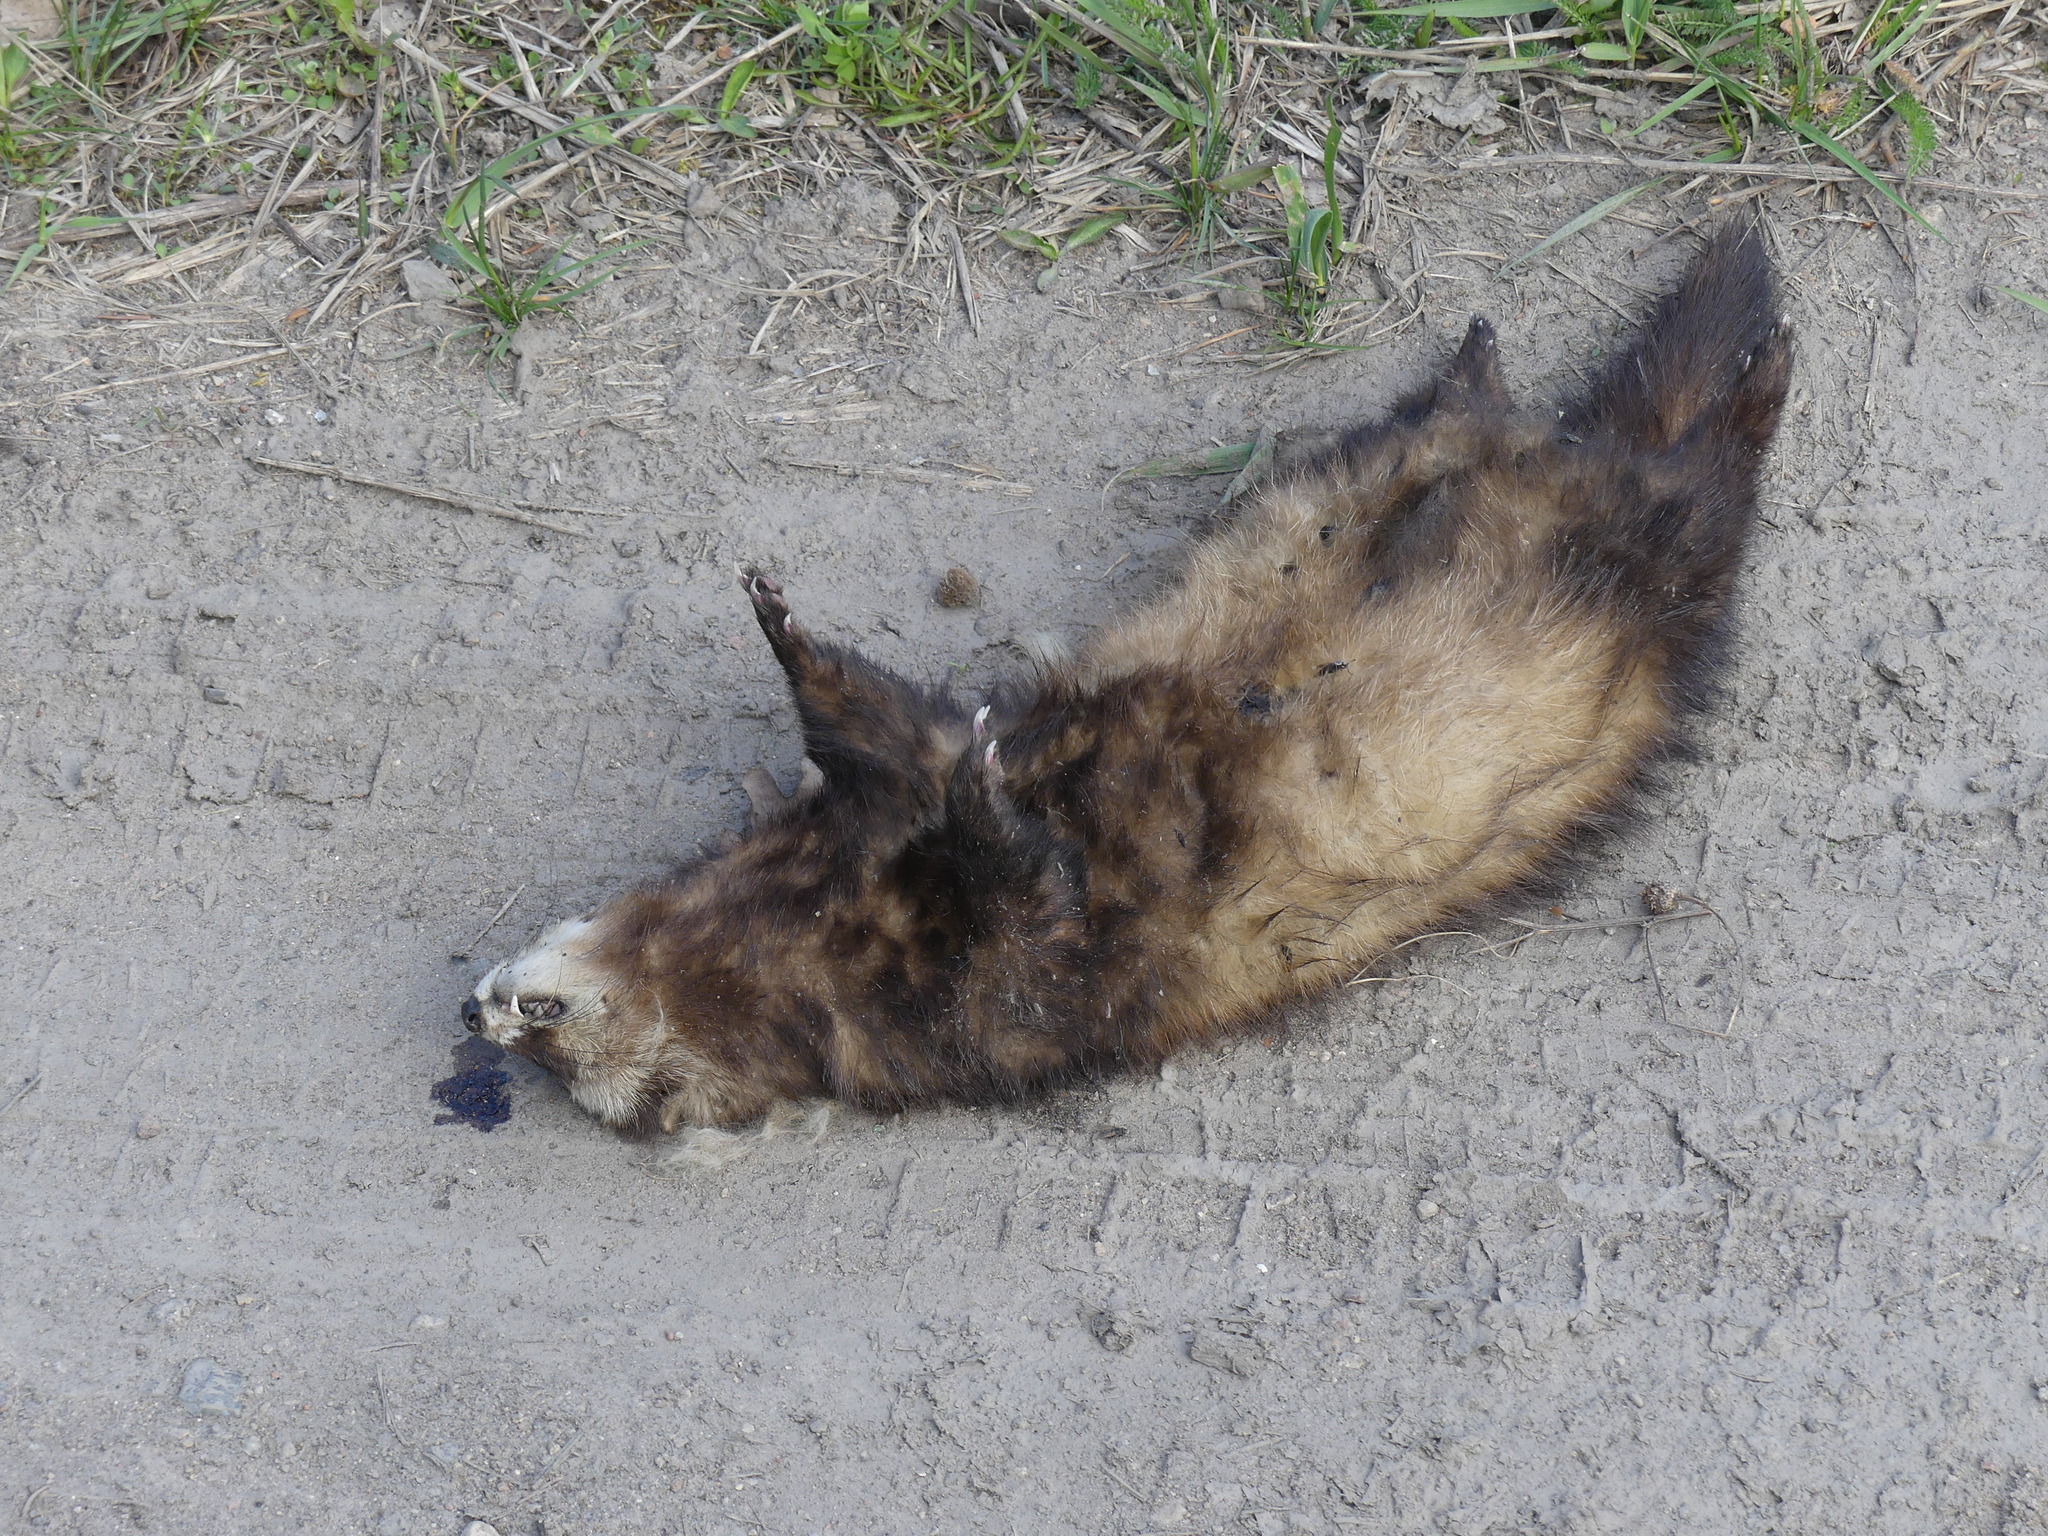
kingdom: Animalia
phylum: Chordata
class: Mammalia
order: Carnivora
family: Mustelidae
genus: Mustela
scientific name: Mustela putorius
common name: European polecat
